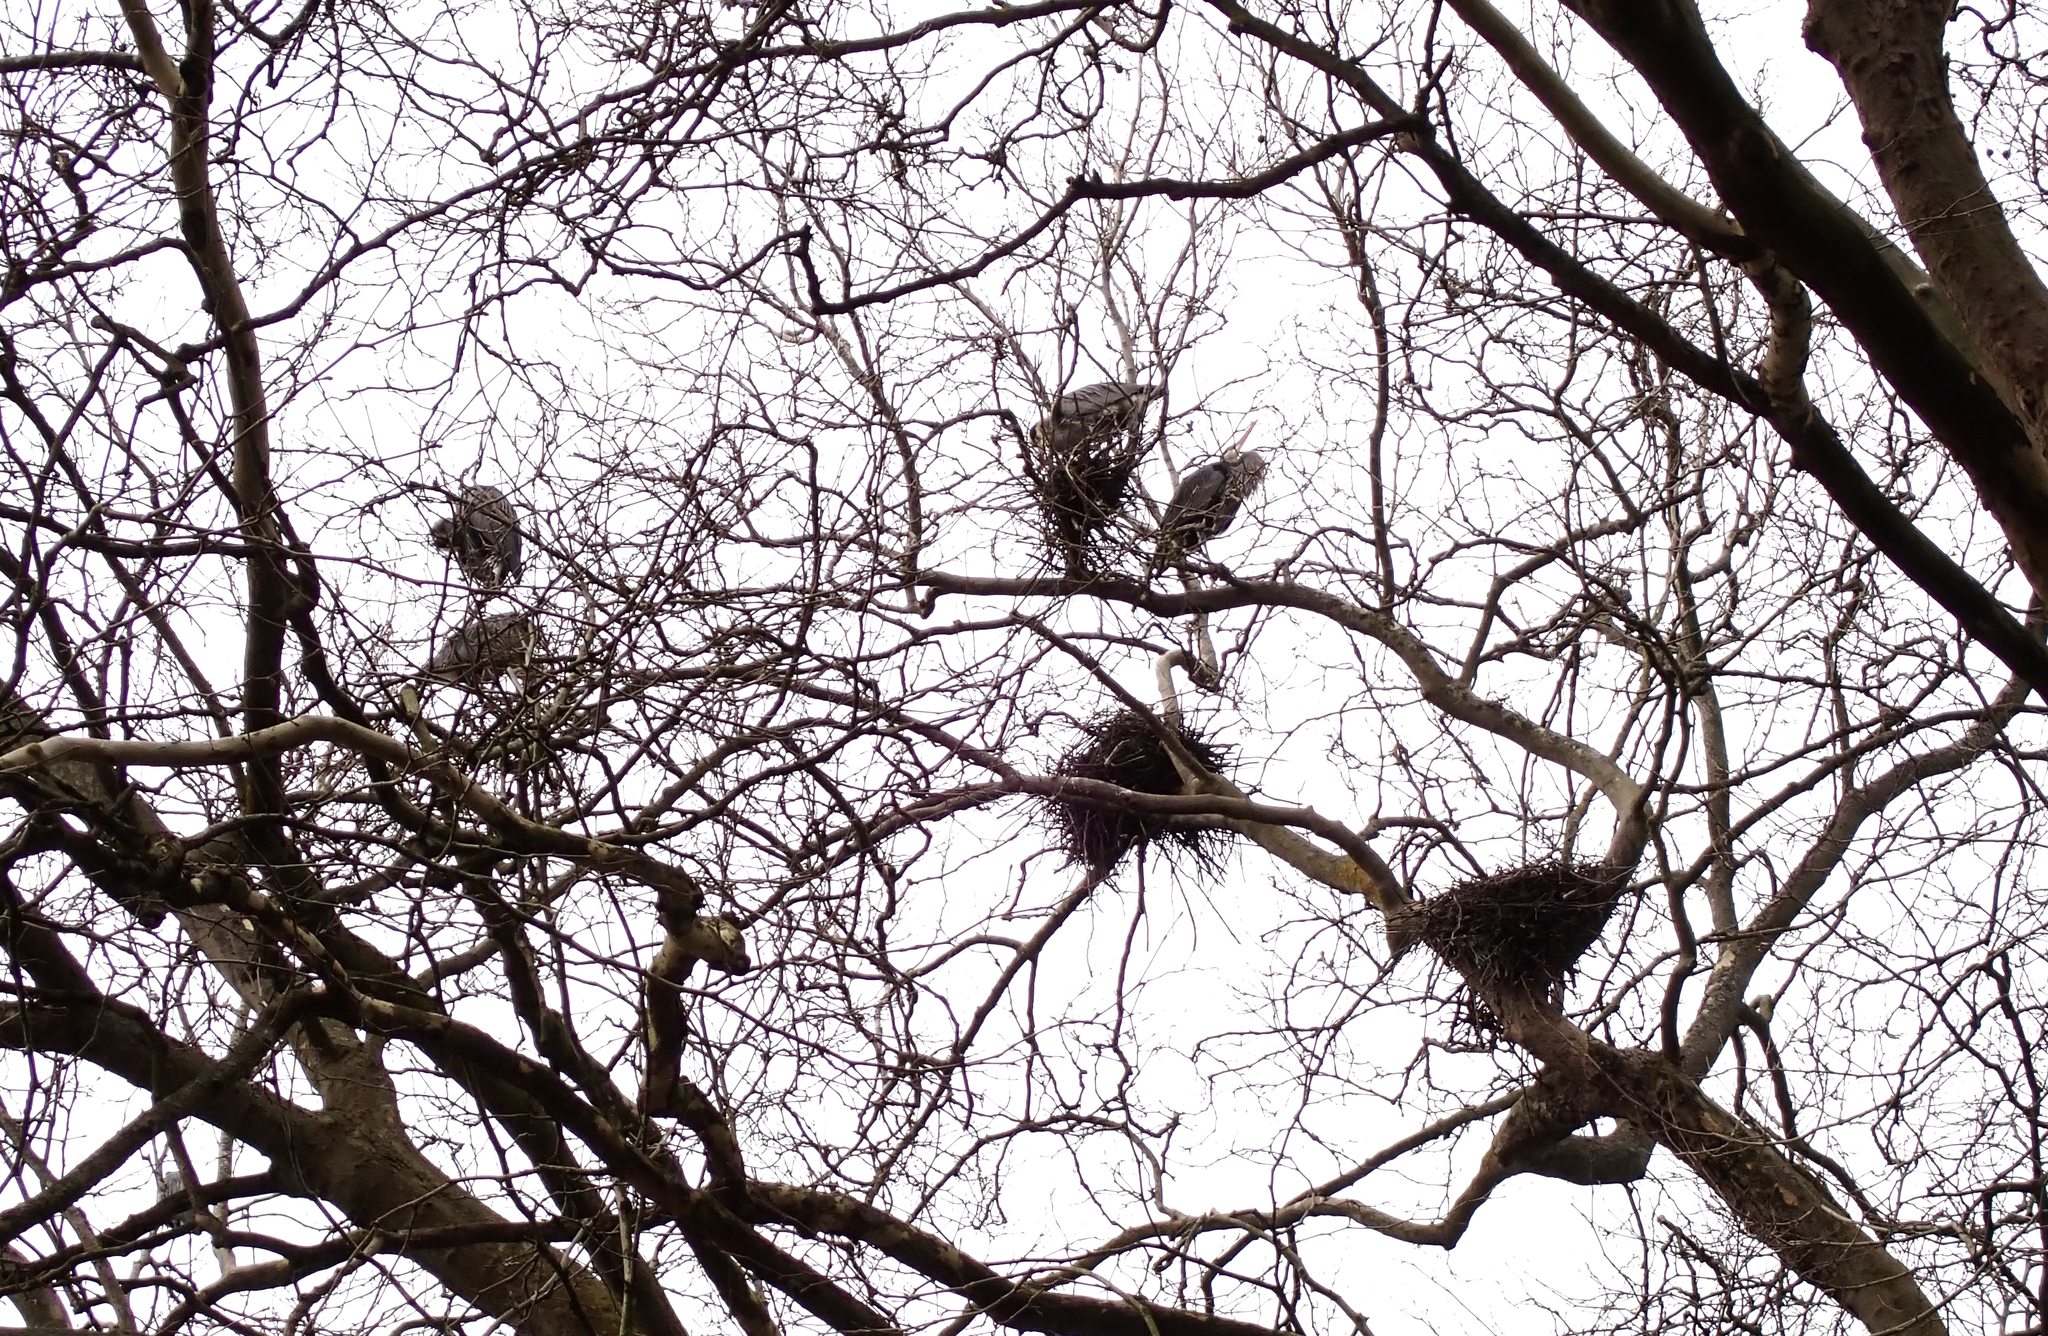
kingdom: Animalia
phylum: Chordata
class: Aves
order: Pelecaniformes
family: Ardeidae
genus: Ardea
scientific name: Ardea herodias
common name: Great blue heron
